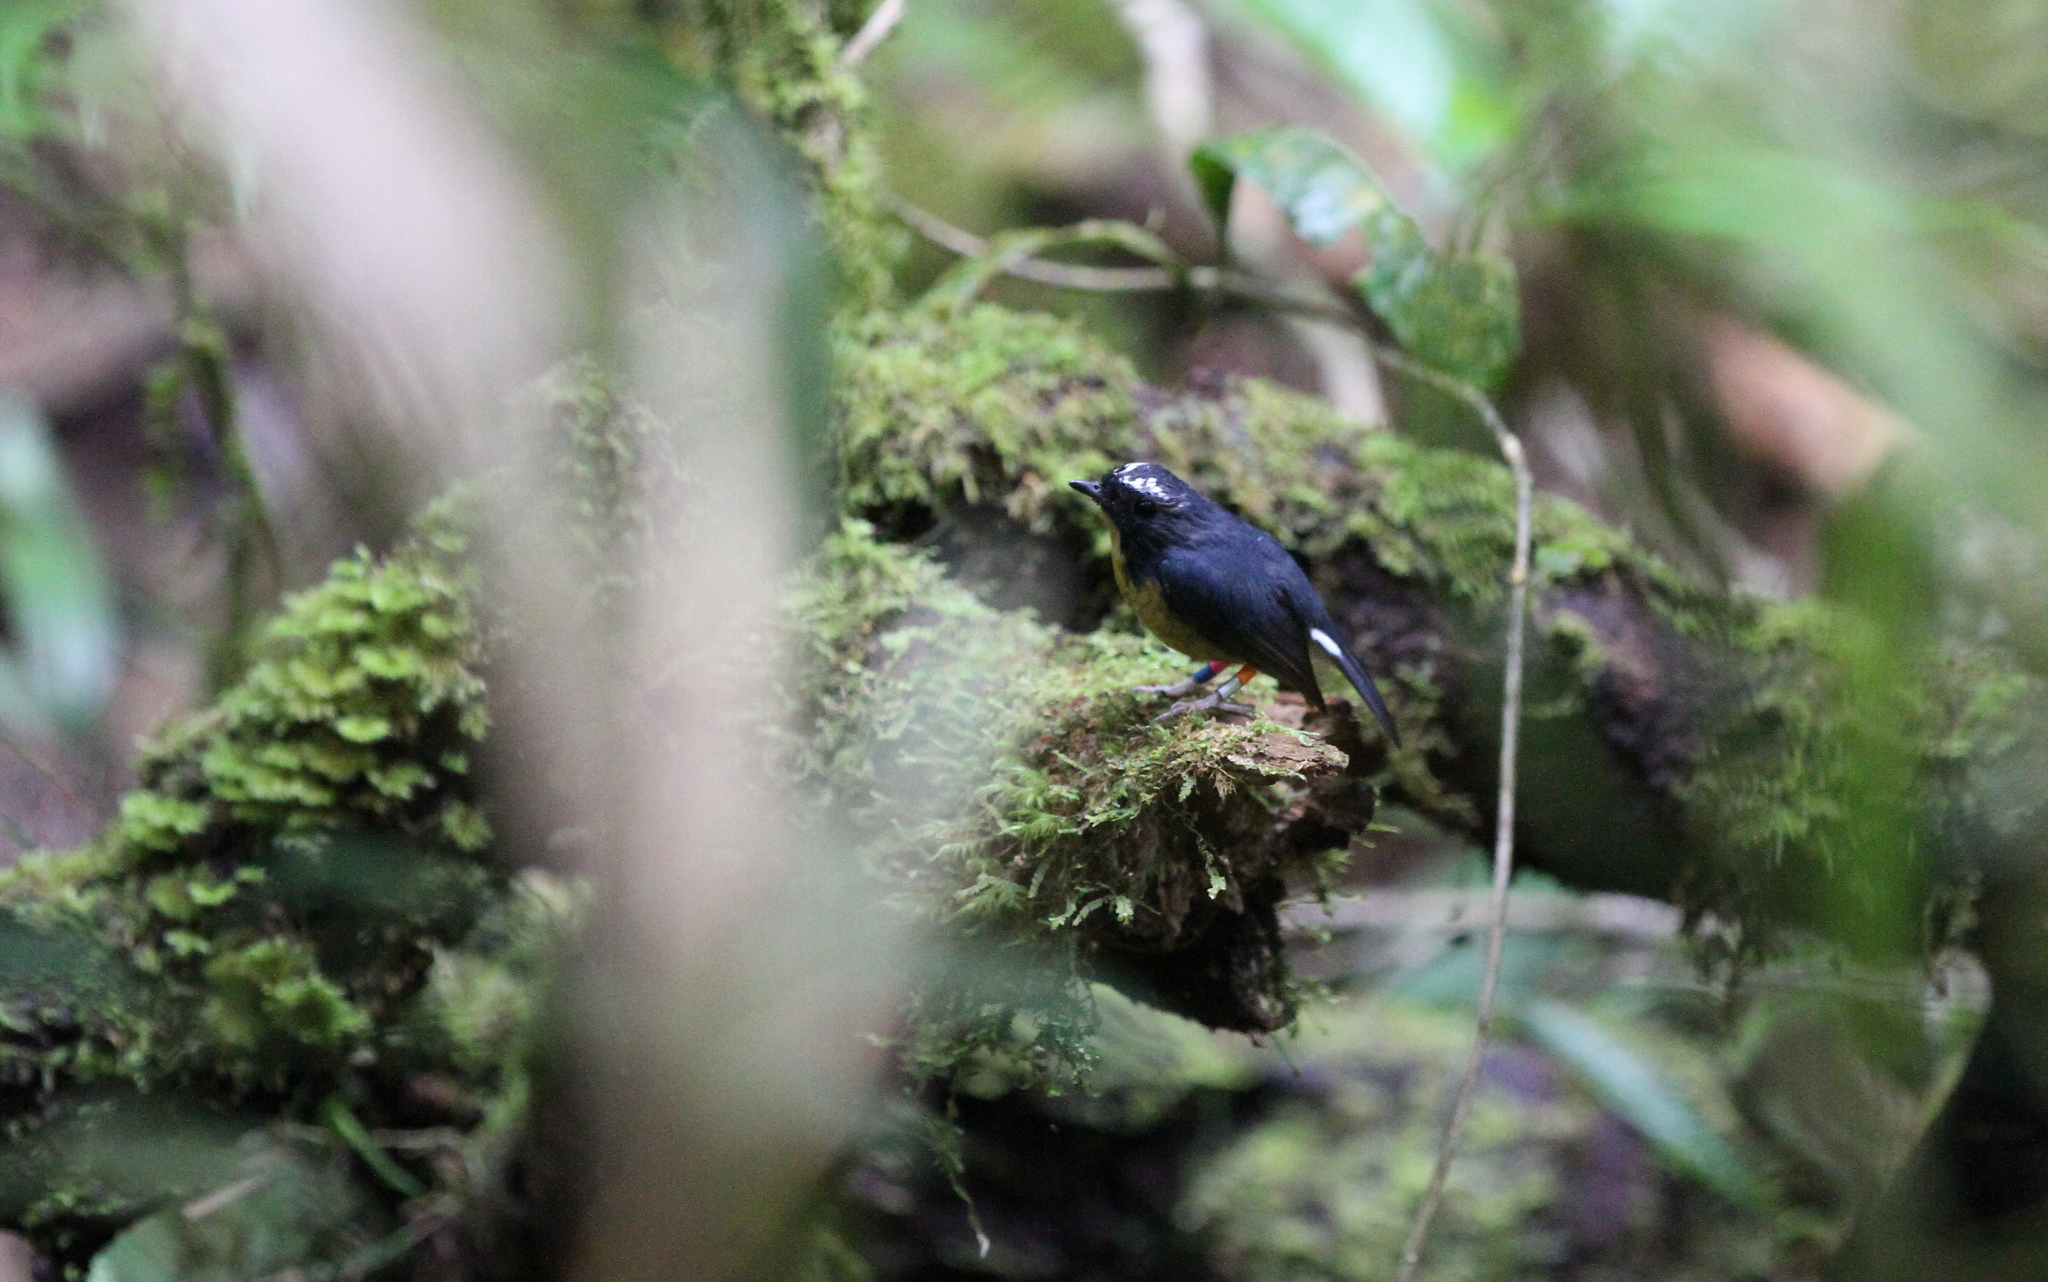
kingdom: Animalia
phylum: Chordata
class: Aves
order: Passeriformes
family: Muscicapidae
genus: Ficedula
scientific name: Ficedula hyperythra
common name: Snowy-browed flycatcher
